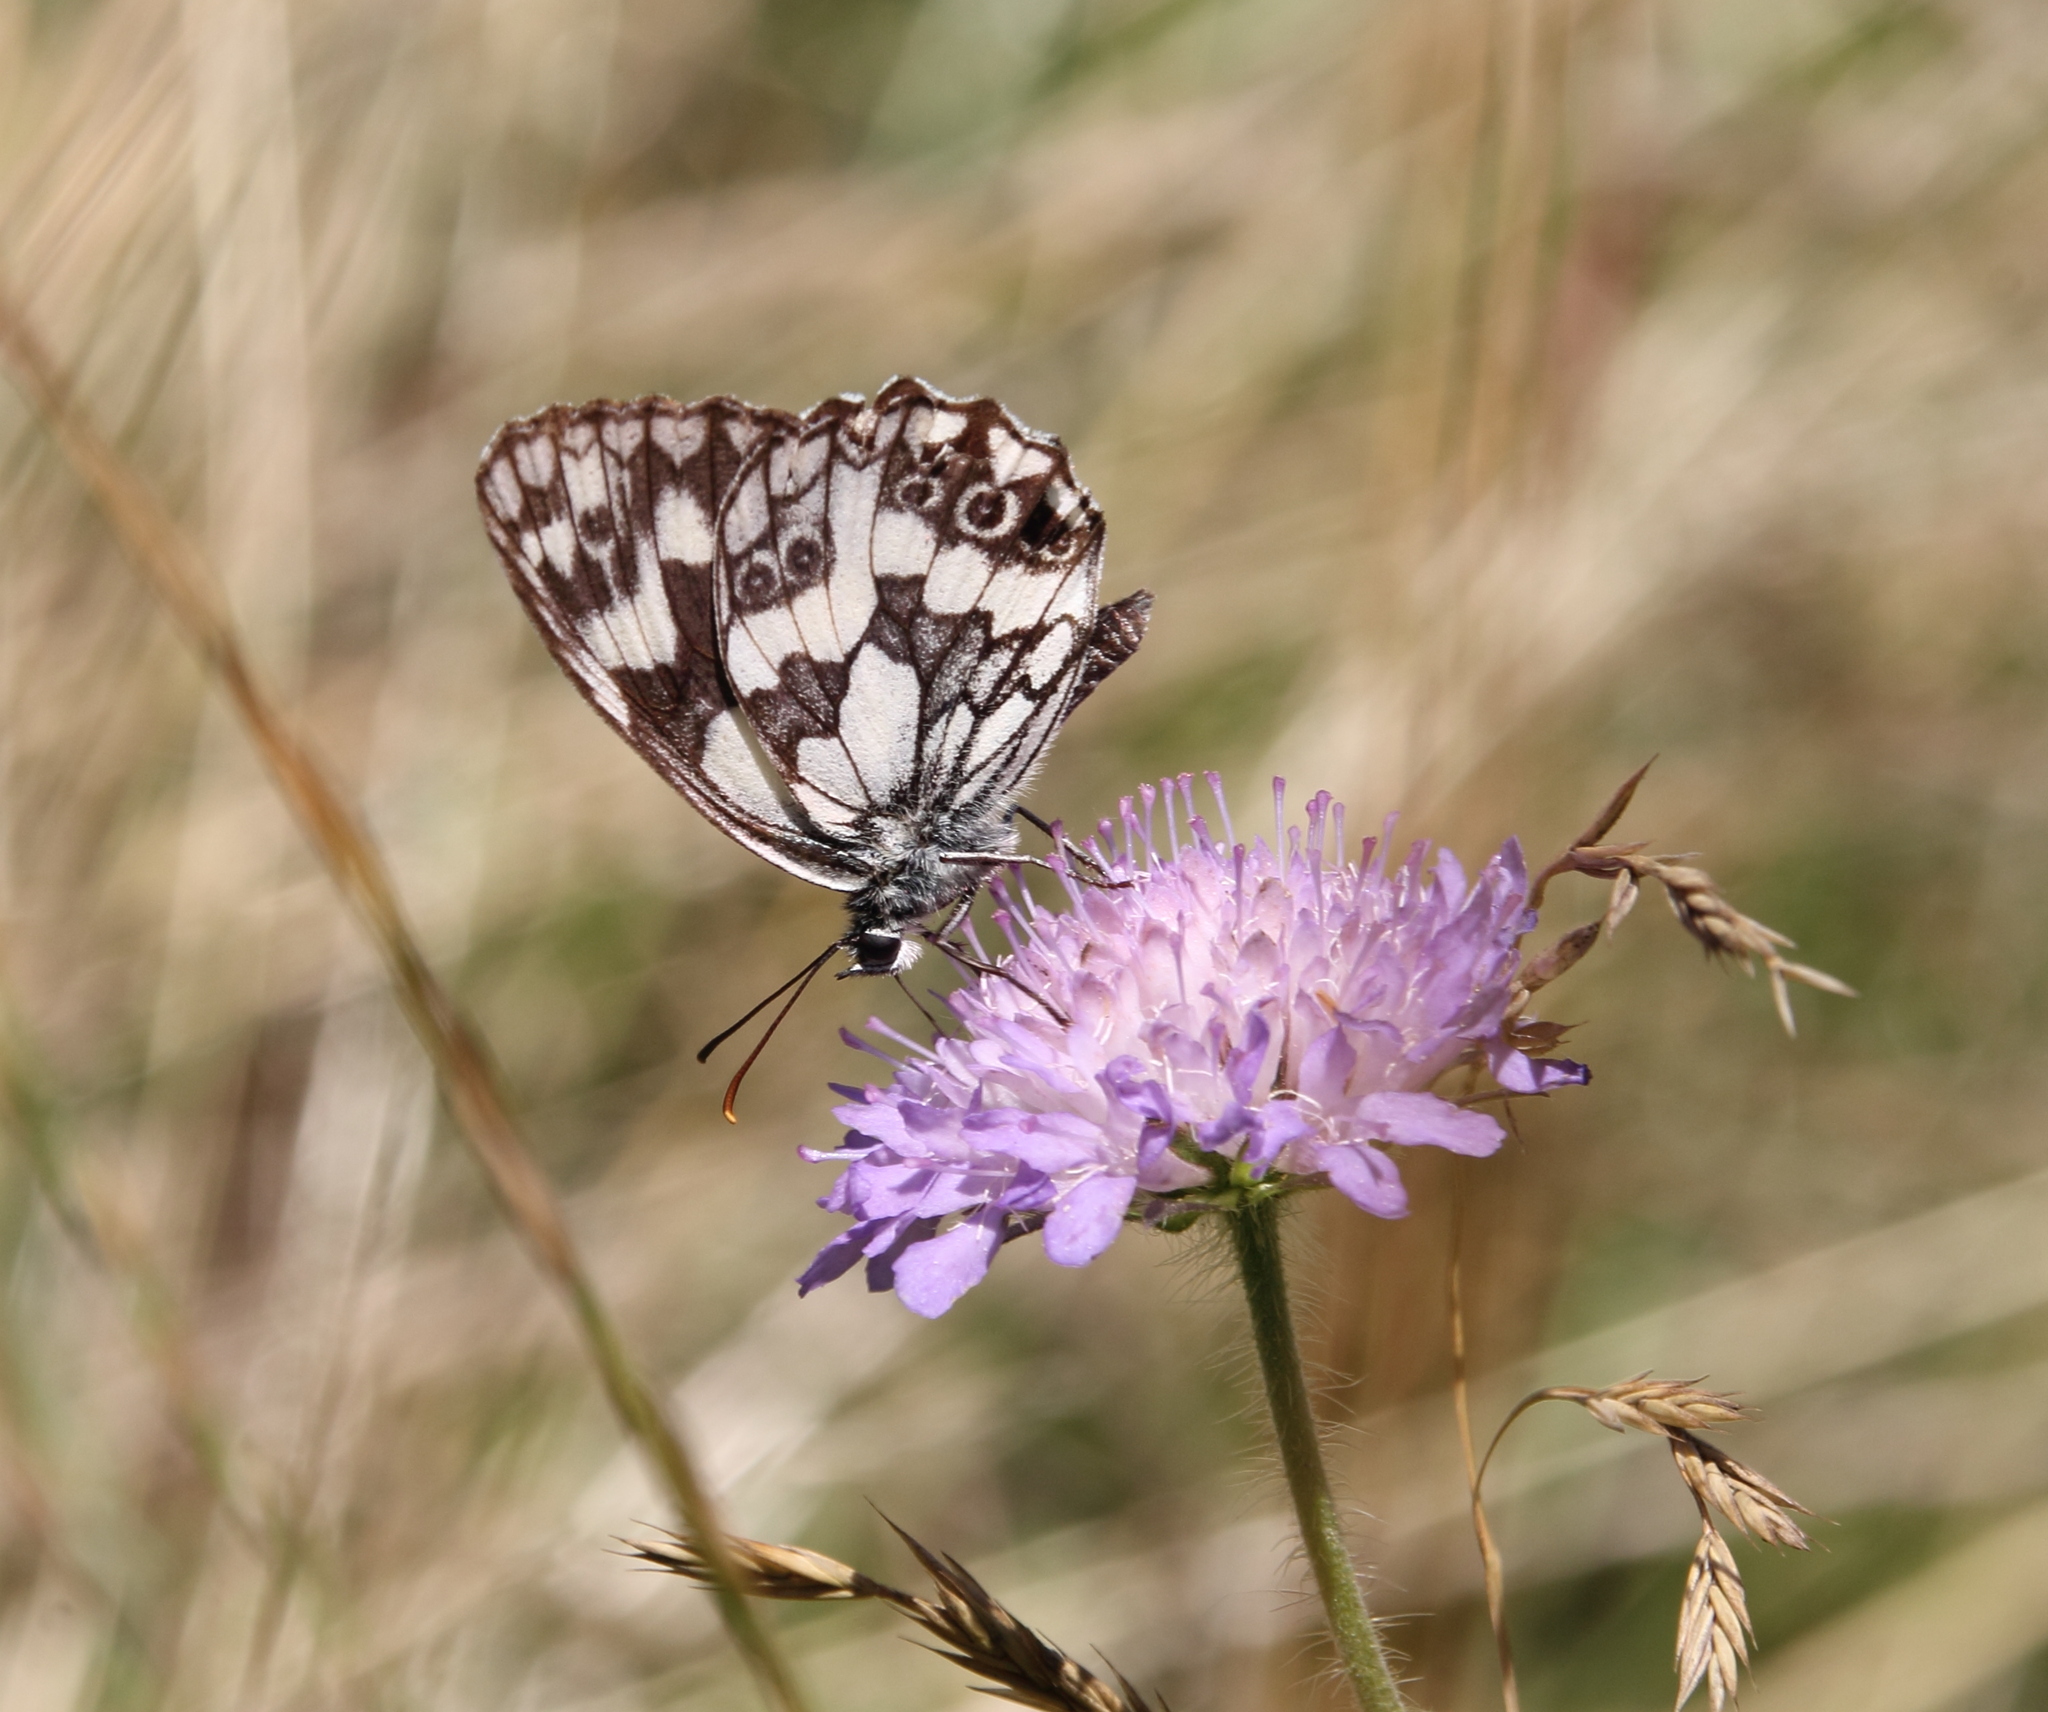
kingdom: Animalia
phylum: Arthropoda
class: Insecta
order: Lepidoptera
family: Nymphalidae
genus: Melanargia
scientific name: Melanargia galathea
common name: Marbled white
